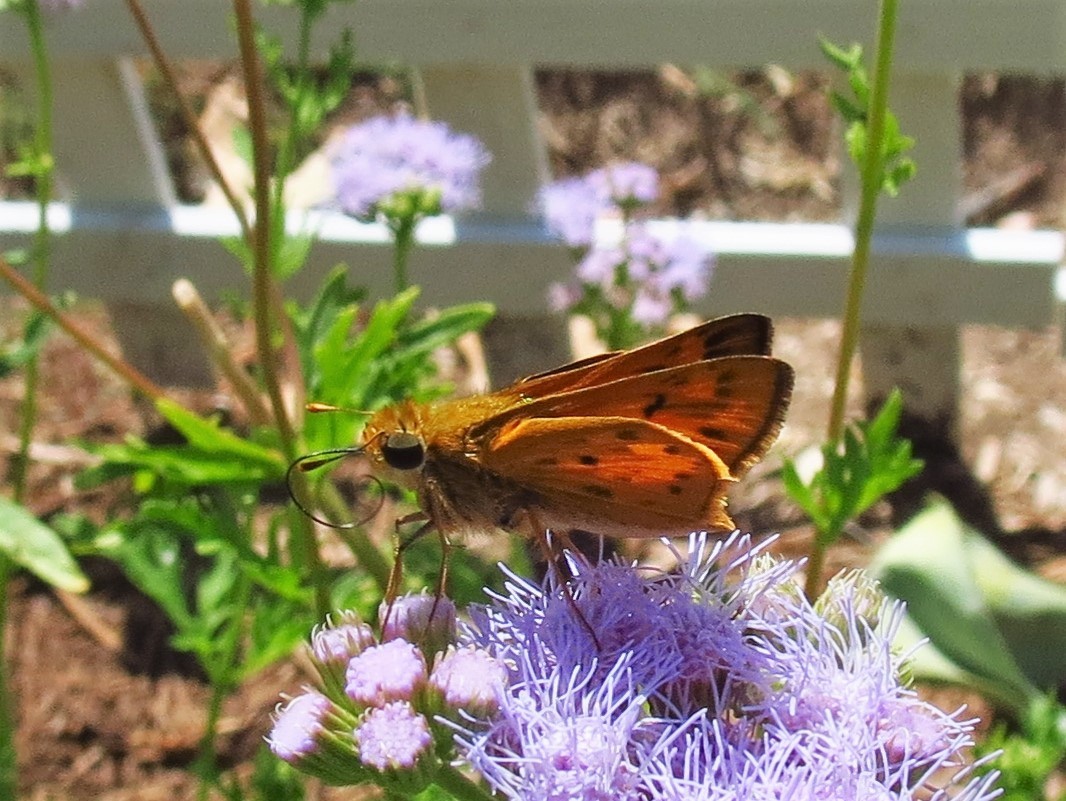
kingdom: Animalia
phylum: Arthropoda
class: Insecta
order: Lepidoptera
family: Hesperiidae
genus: Hylephila
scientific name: Hylephila phyleus
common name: Fiery skipper
